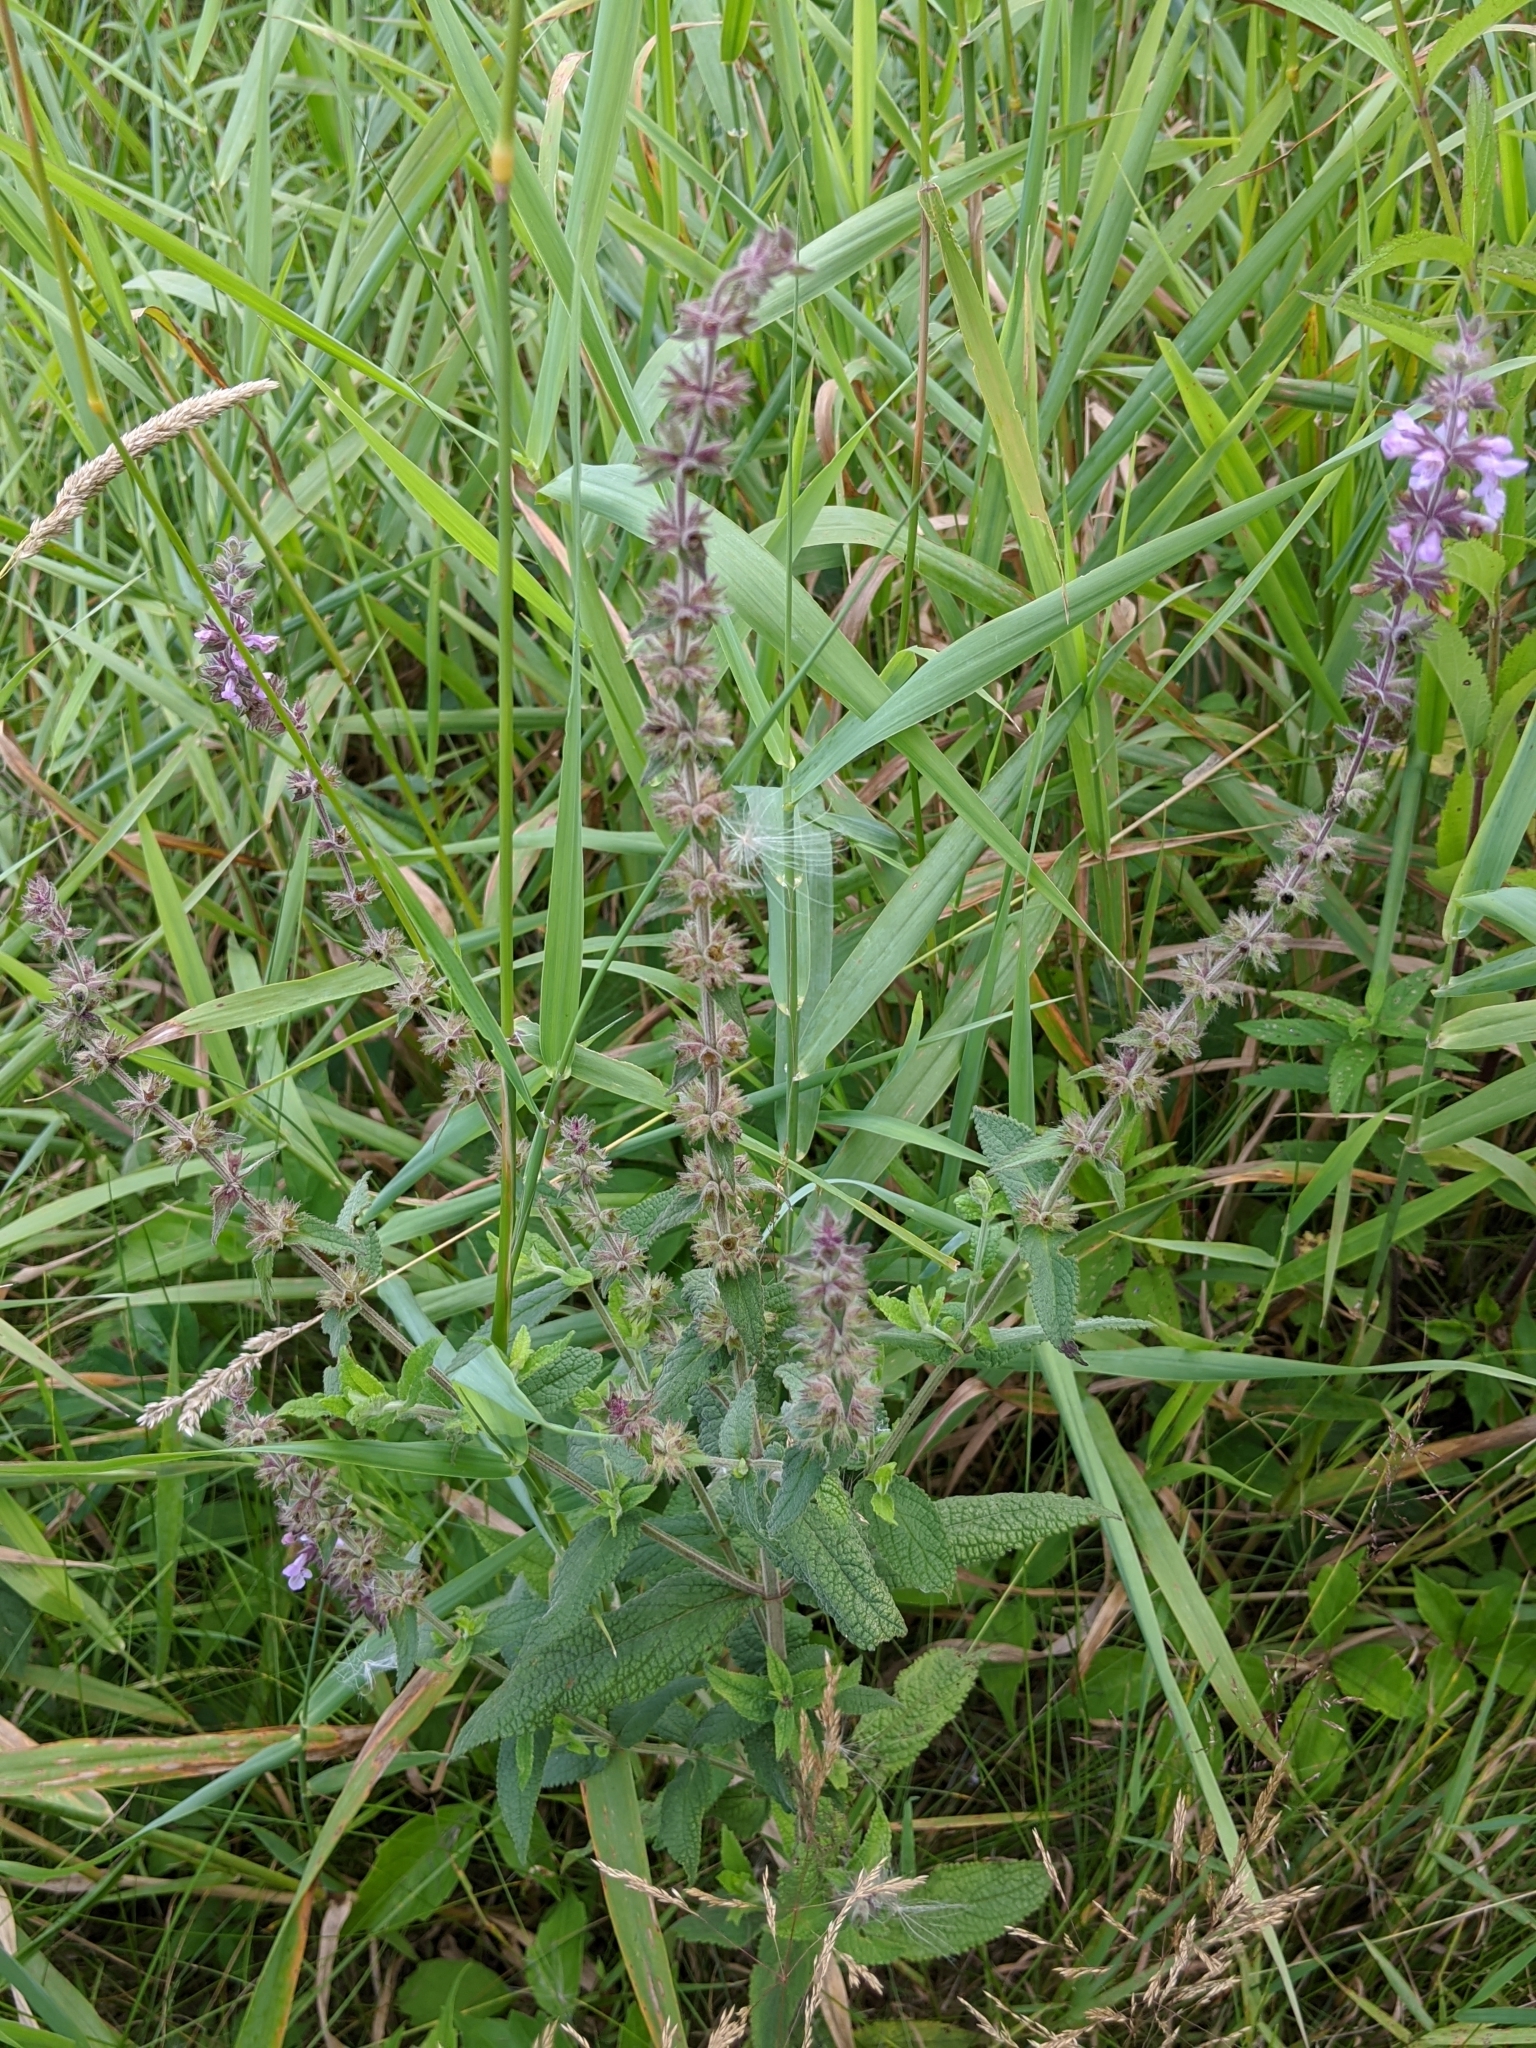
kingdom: Plantae
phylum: Tracheophyta
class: Magnoliopsida
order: Lamiales
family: Lamiaceae
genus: Stachys
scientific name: Stachys palustris
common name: Marsh woundwort
